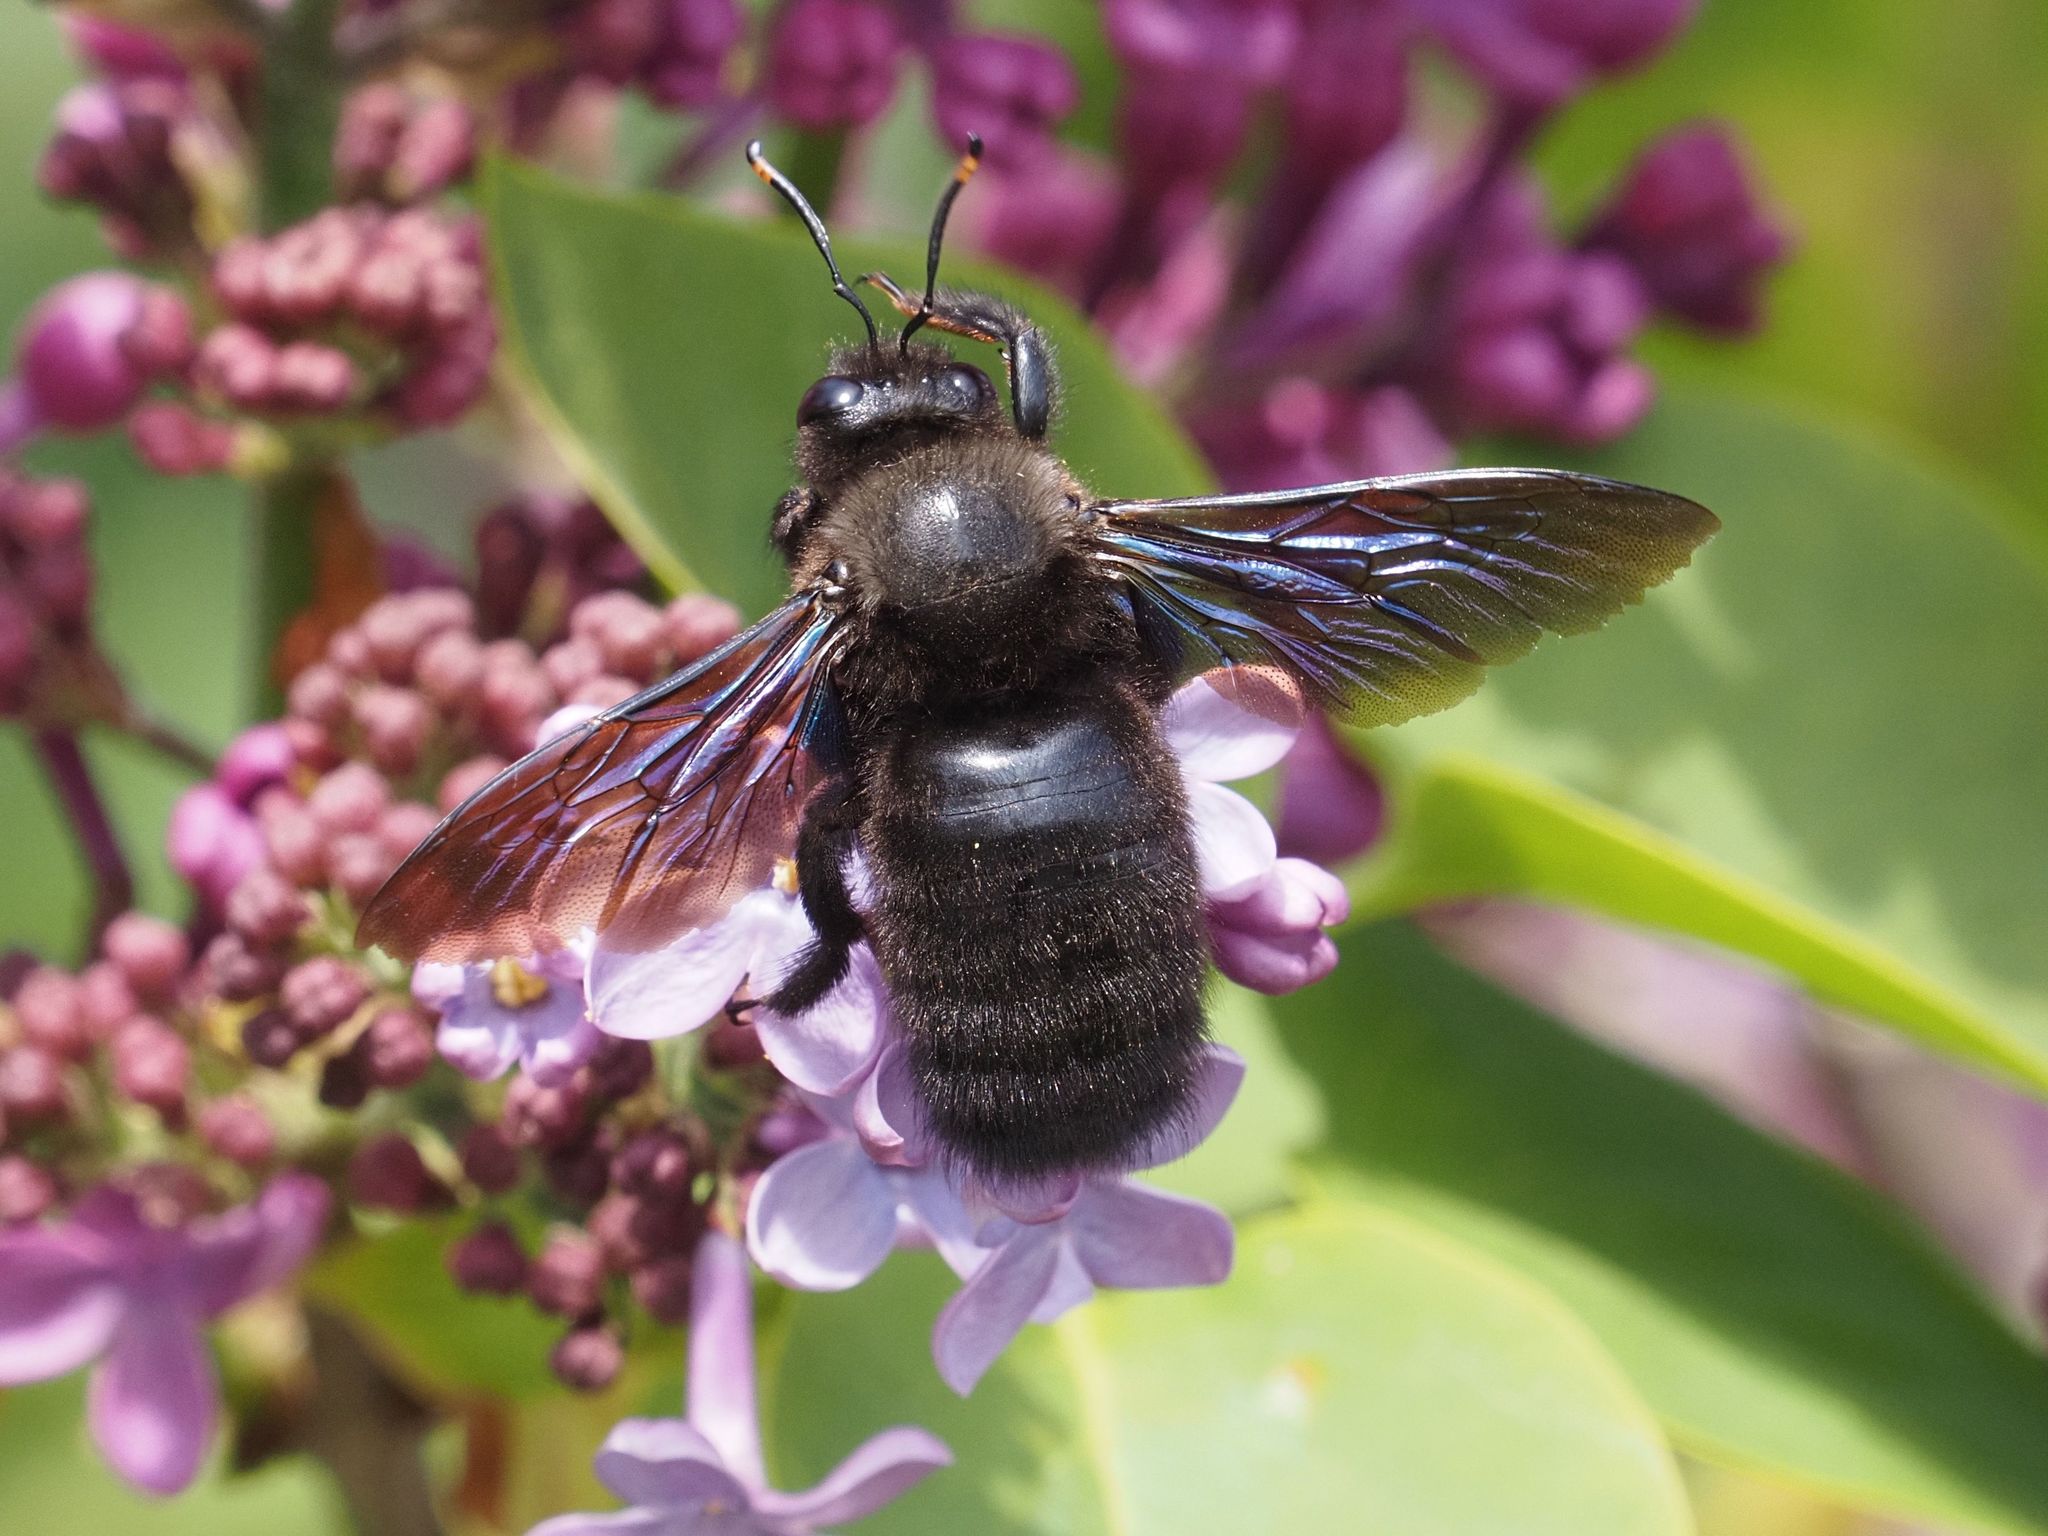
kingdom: Animalia
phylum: Arthropoda
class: Insecta
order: Hymenoptera
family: Apidae
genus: Xylocopa
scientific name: Xylocopa violacea
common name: Violet carpenter bee
